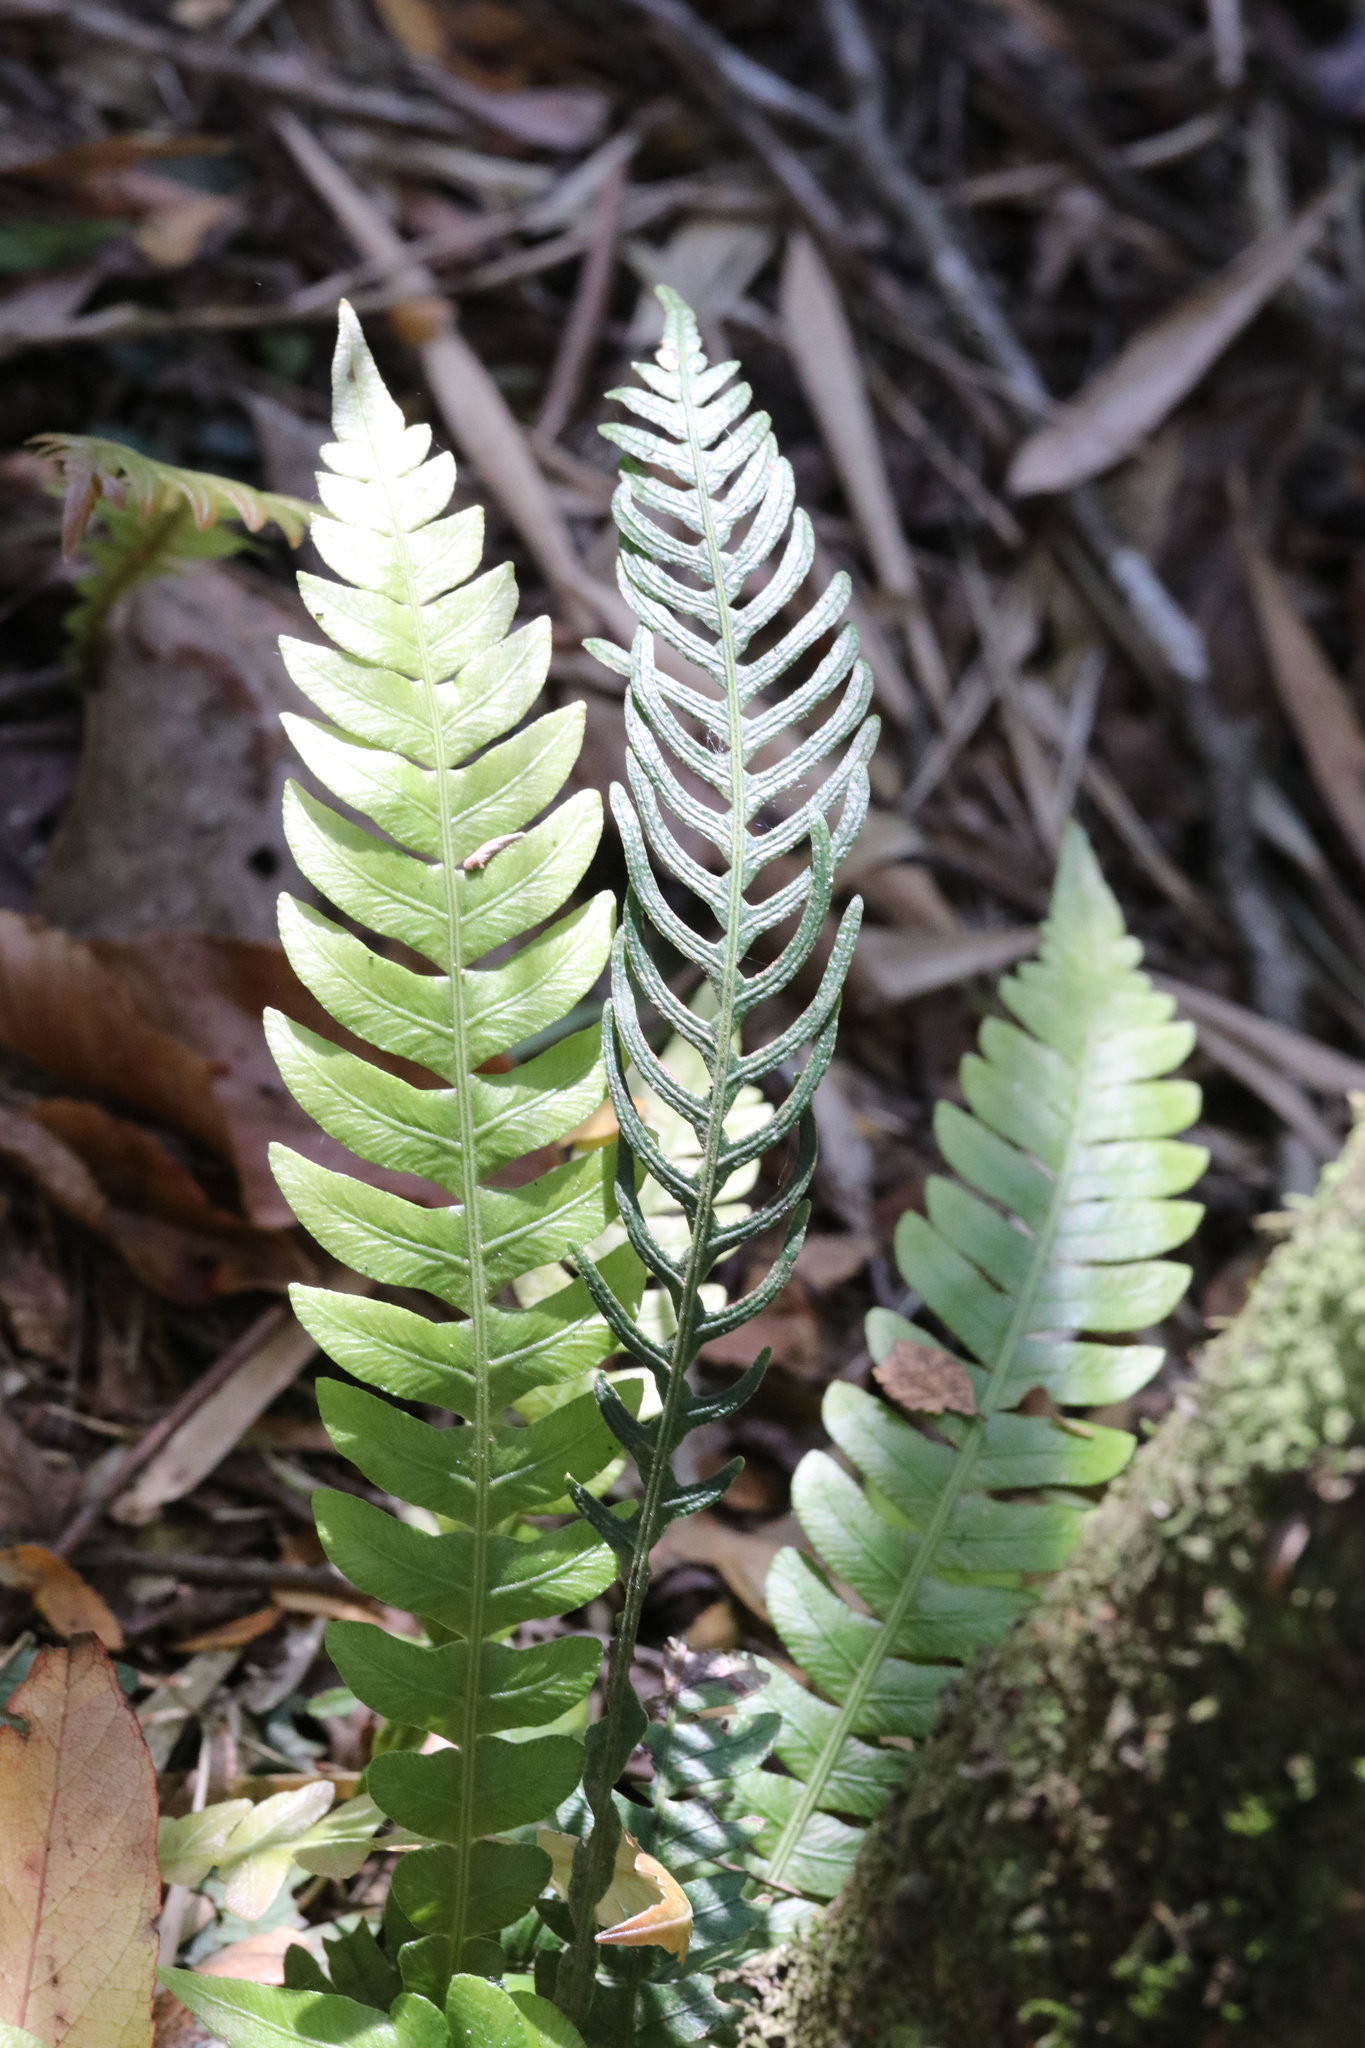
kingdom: Plantae
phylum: Tracheophyta
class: Polypodiopsida
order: Polypodiales
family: Blechnaceae
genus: Austroblechnum
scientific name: Austroblechnum lechleri
